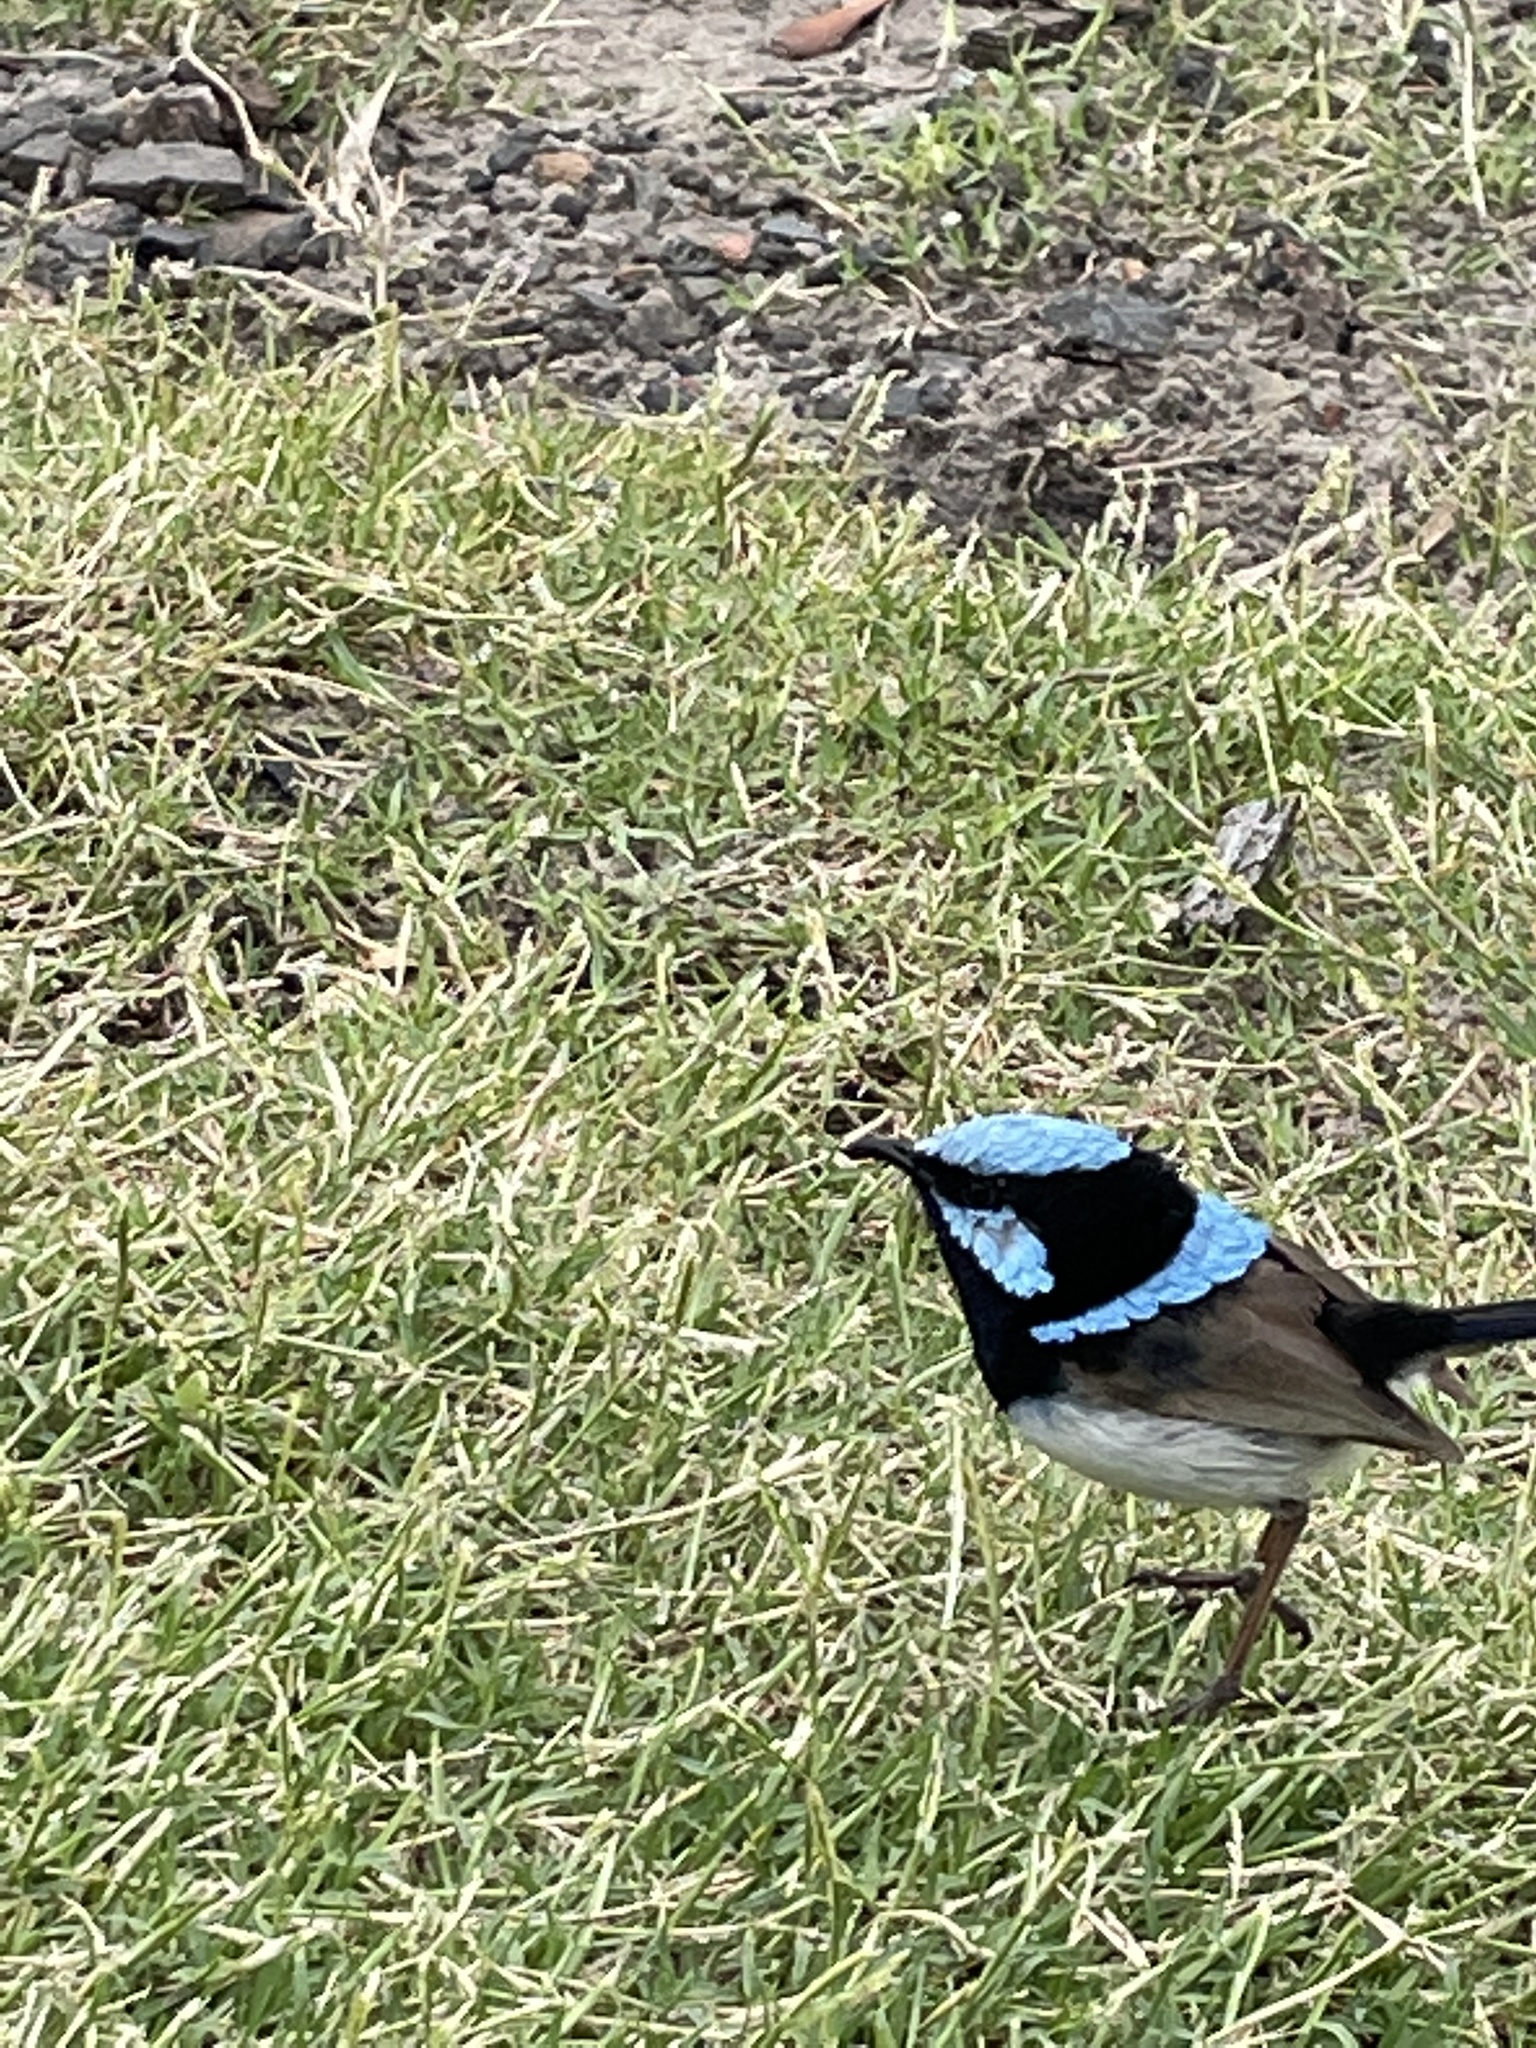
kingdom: Animalia
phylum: Chordata
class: Aves
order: Passeriformes
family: Maluridae
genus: Malurus
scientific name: Malurus cyaneus
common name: Superb fairywren
